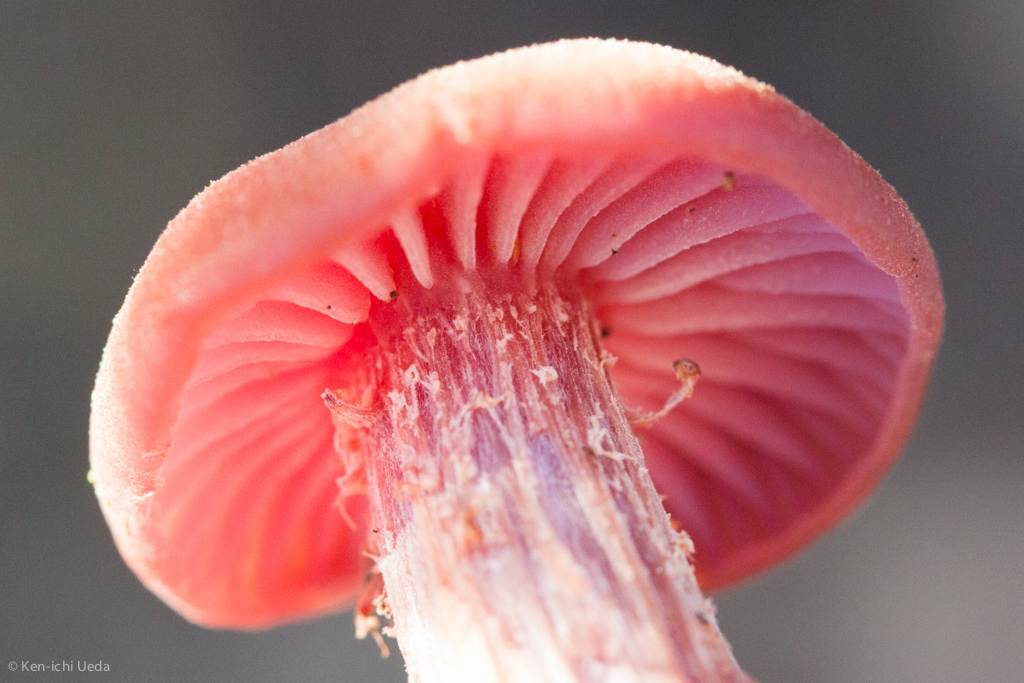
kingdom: Fungi
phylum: Basidiomycota
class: Agaricomycetes
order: Agaricales
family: Hydnangiaceae
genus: Laccaria
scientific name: Laccaria amethysteo-occidentalis
